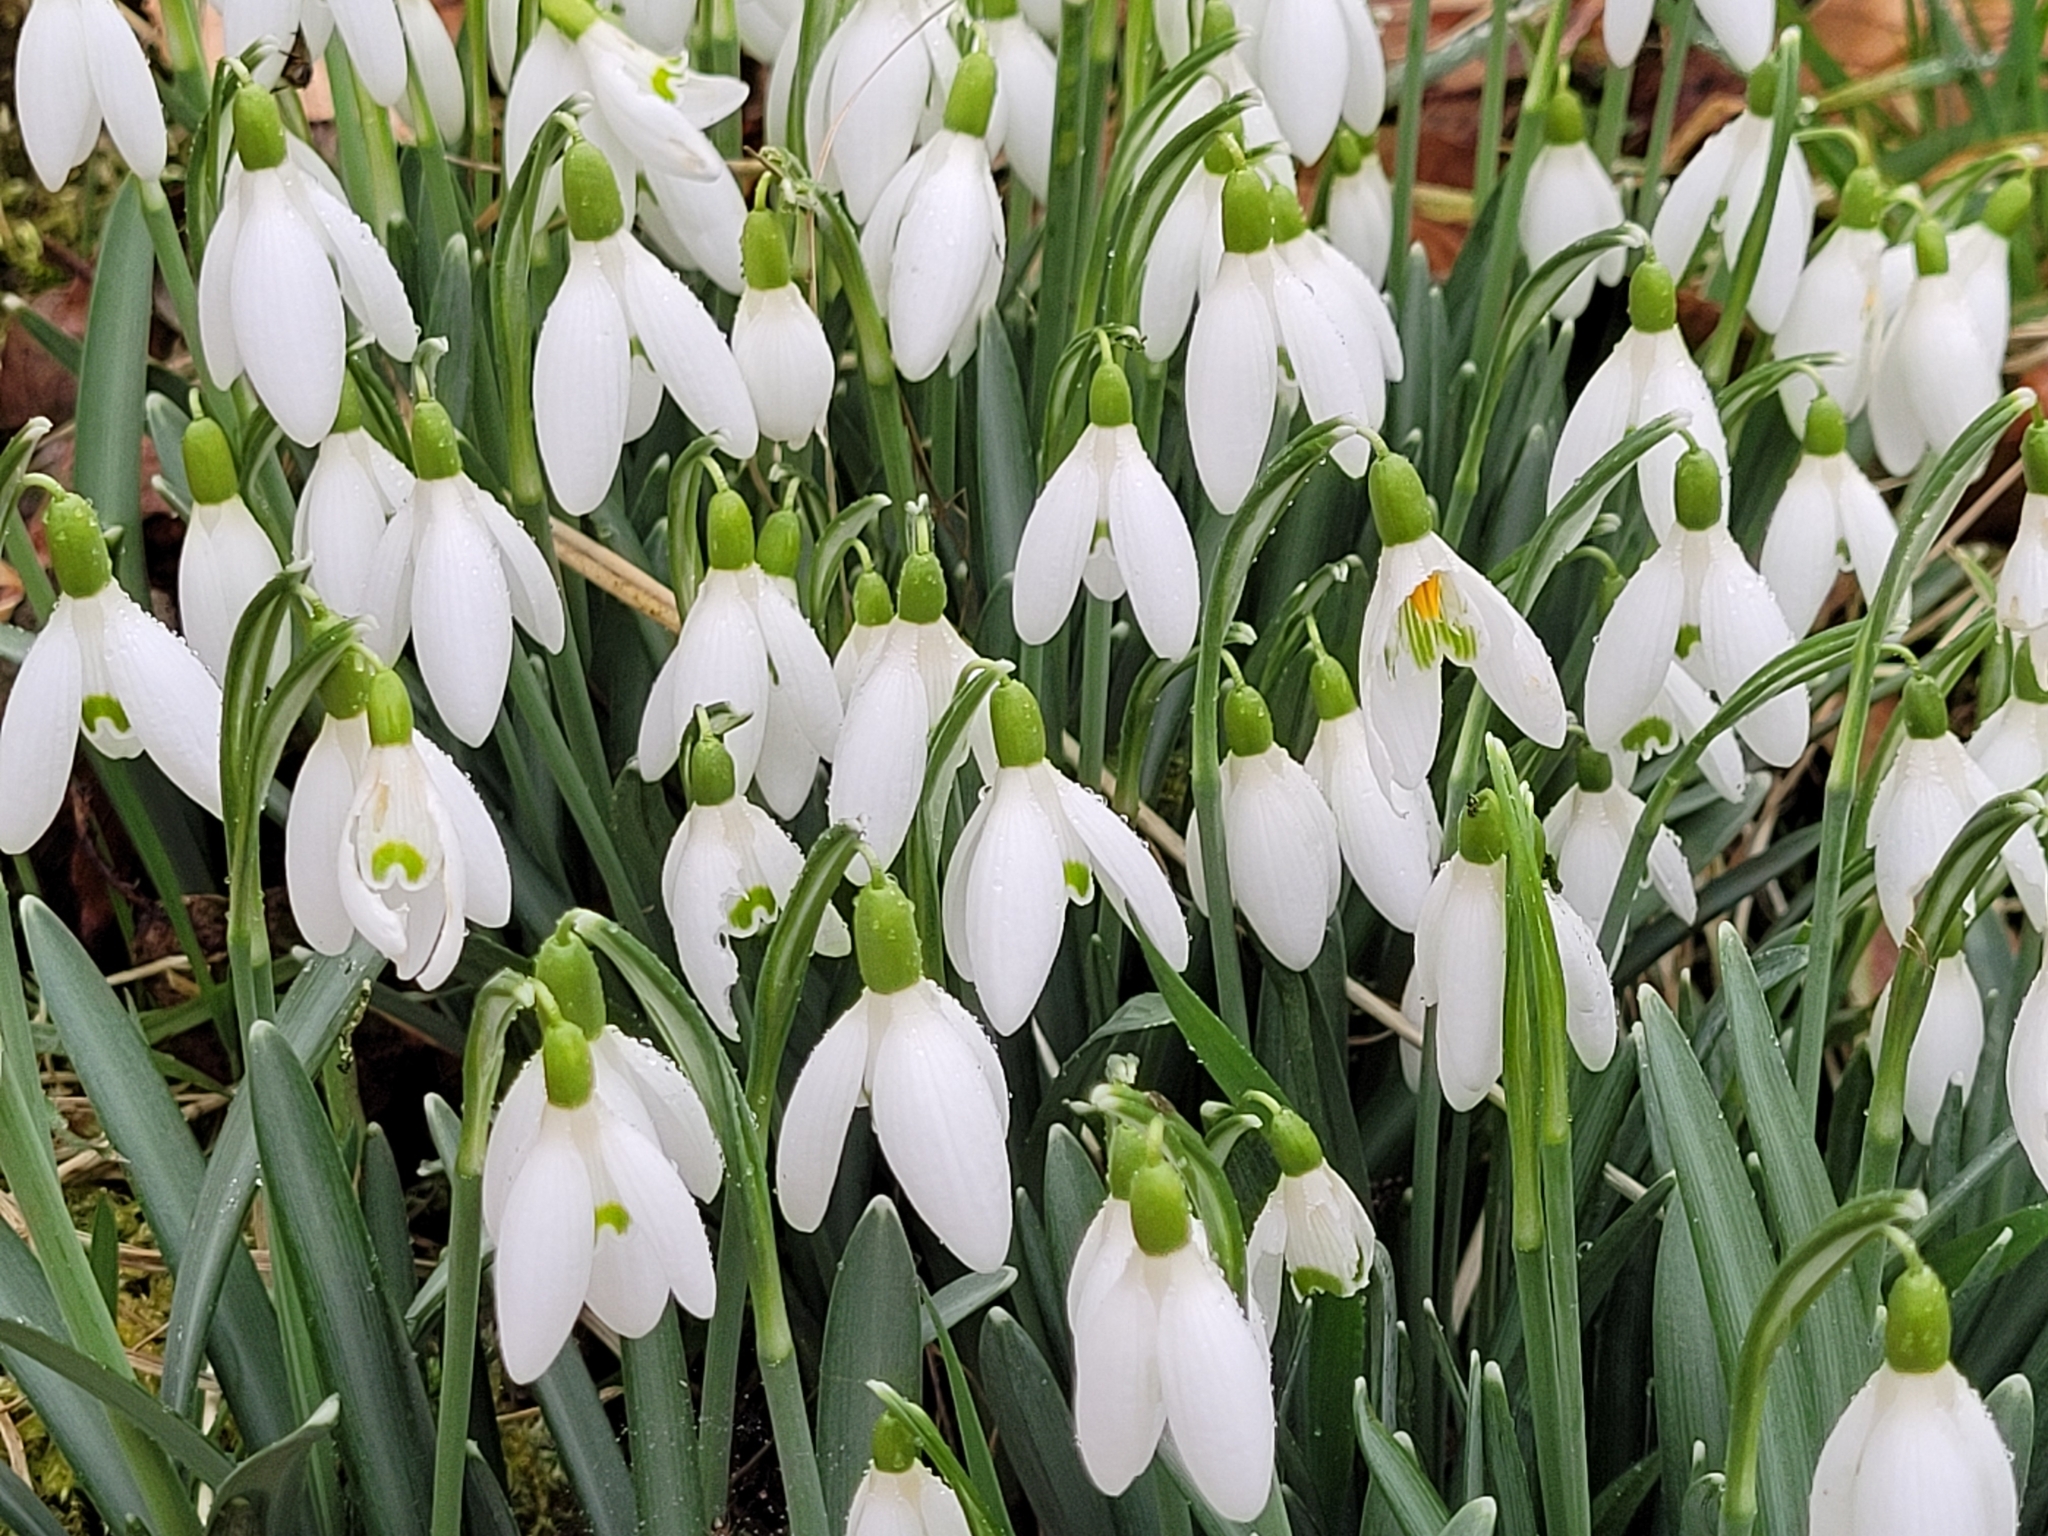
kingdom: Plantae
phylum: Tracheophyta
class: Liliopsida
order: Asparagales
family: Amaryllidaceae
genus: Galanthus
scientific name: Galanthus nivalis
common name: Snowdrop
